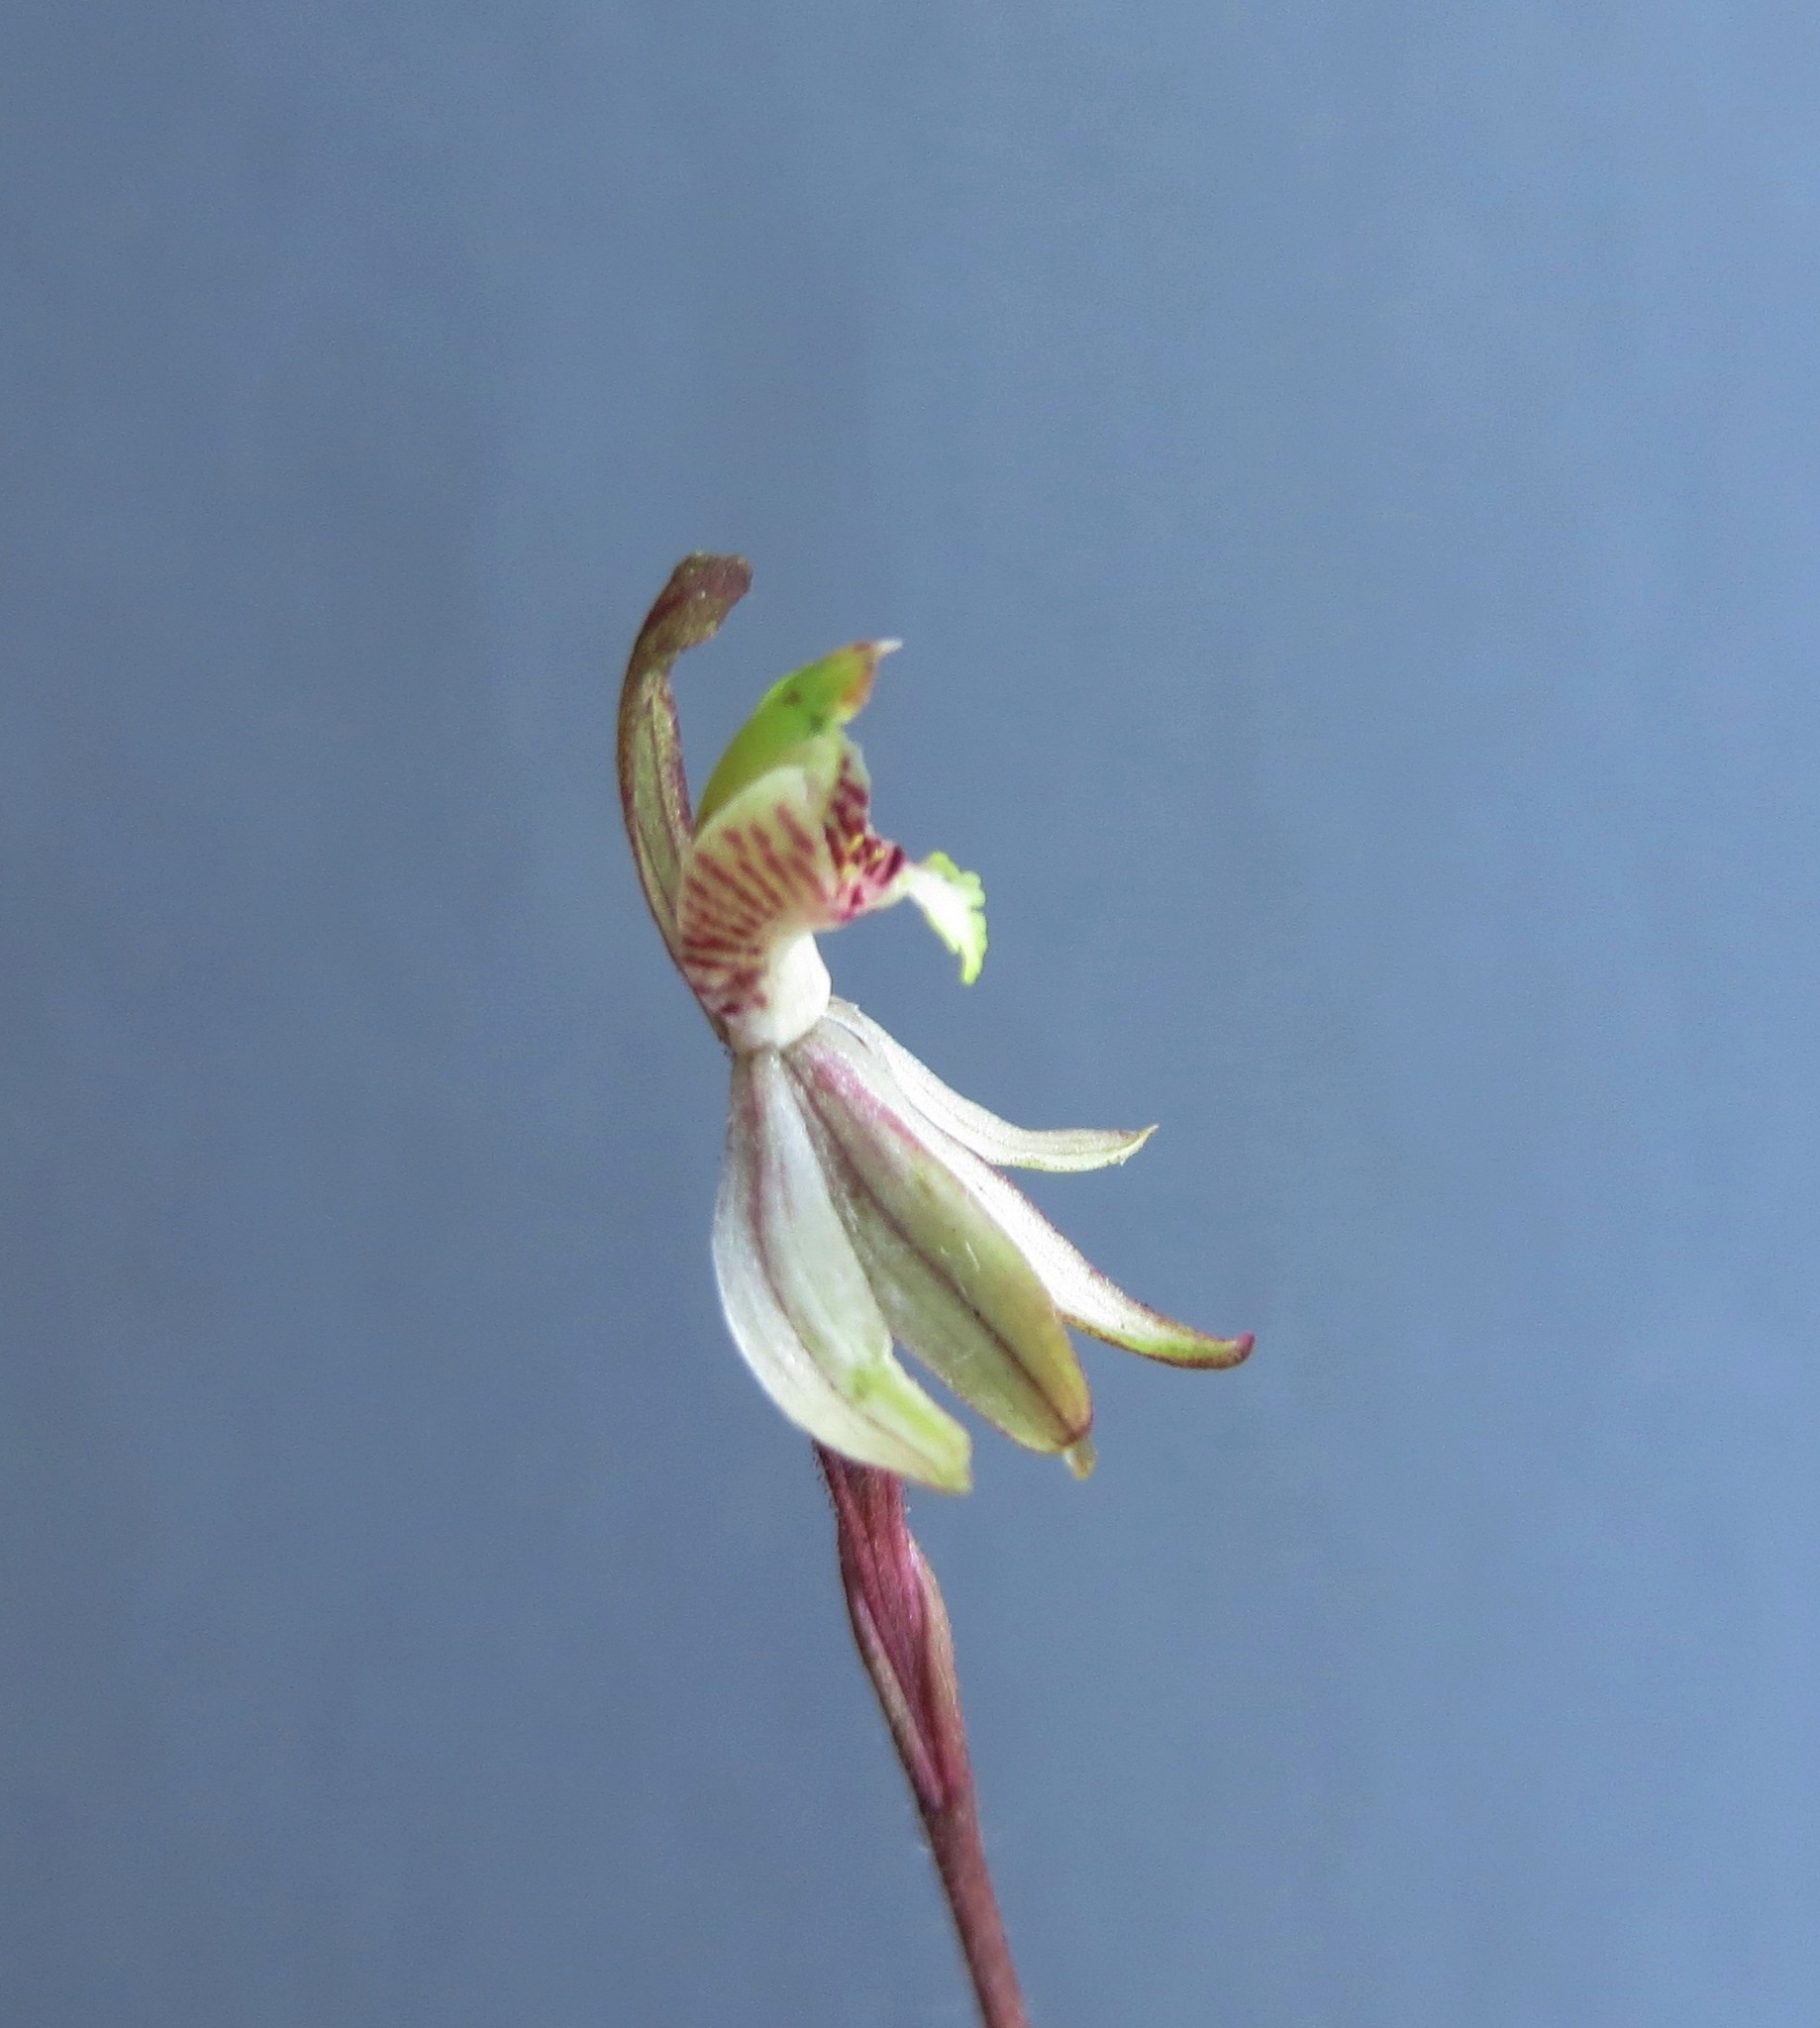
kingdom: Plantae
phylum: Tracheophyta
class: Liliopsida
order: Asparagales
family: Orchidaceae
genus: Caladenia
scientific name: Caladenia chlorostyla
